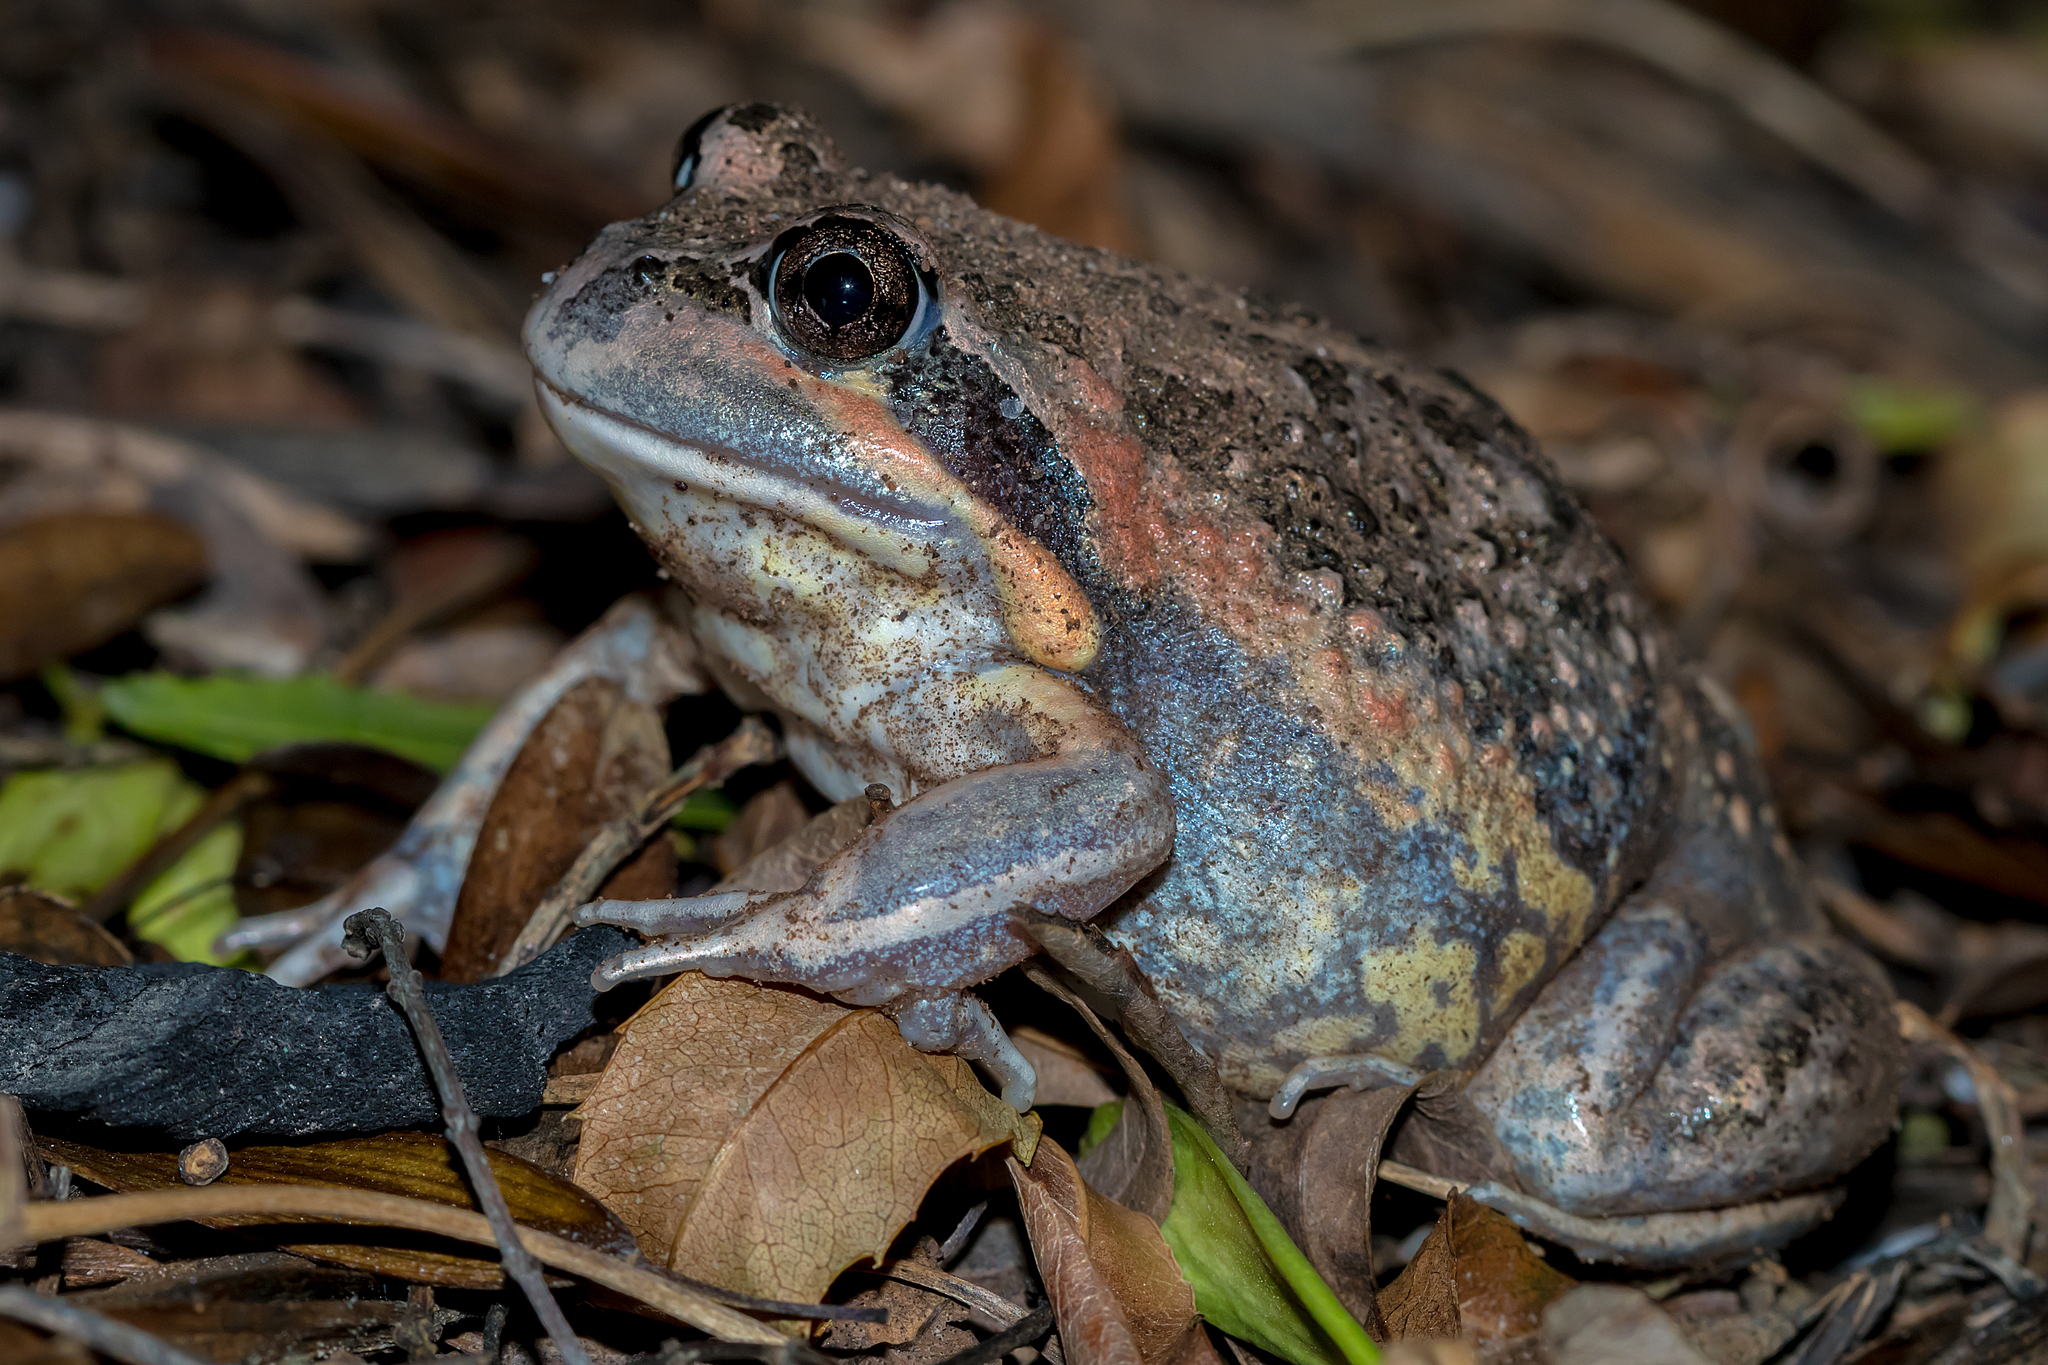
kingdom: Animalia
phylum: Chordata
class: Amphibia
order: Anura
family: Limnodynastidae
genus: Limnodynastes
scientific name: Limnodynastes dumerilii
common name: Banjo frog
